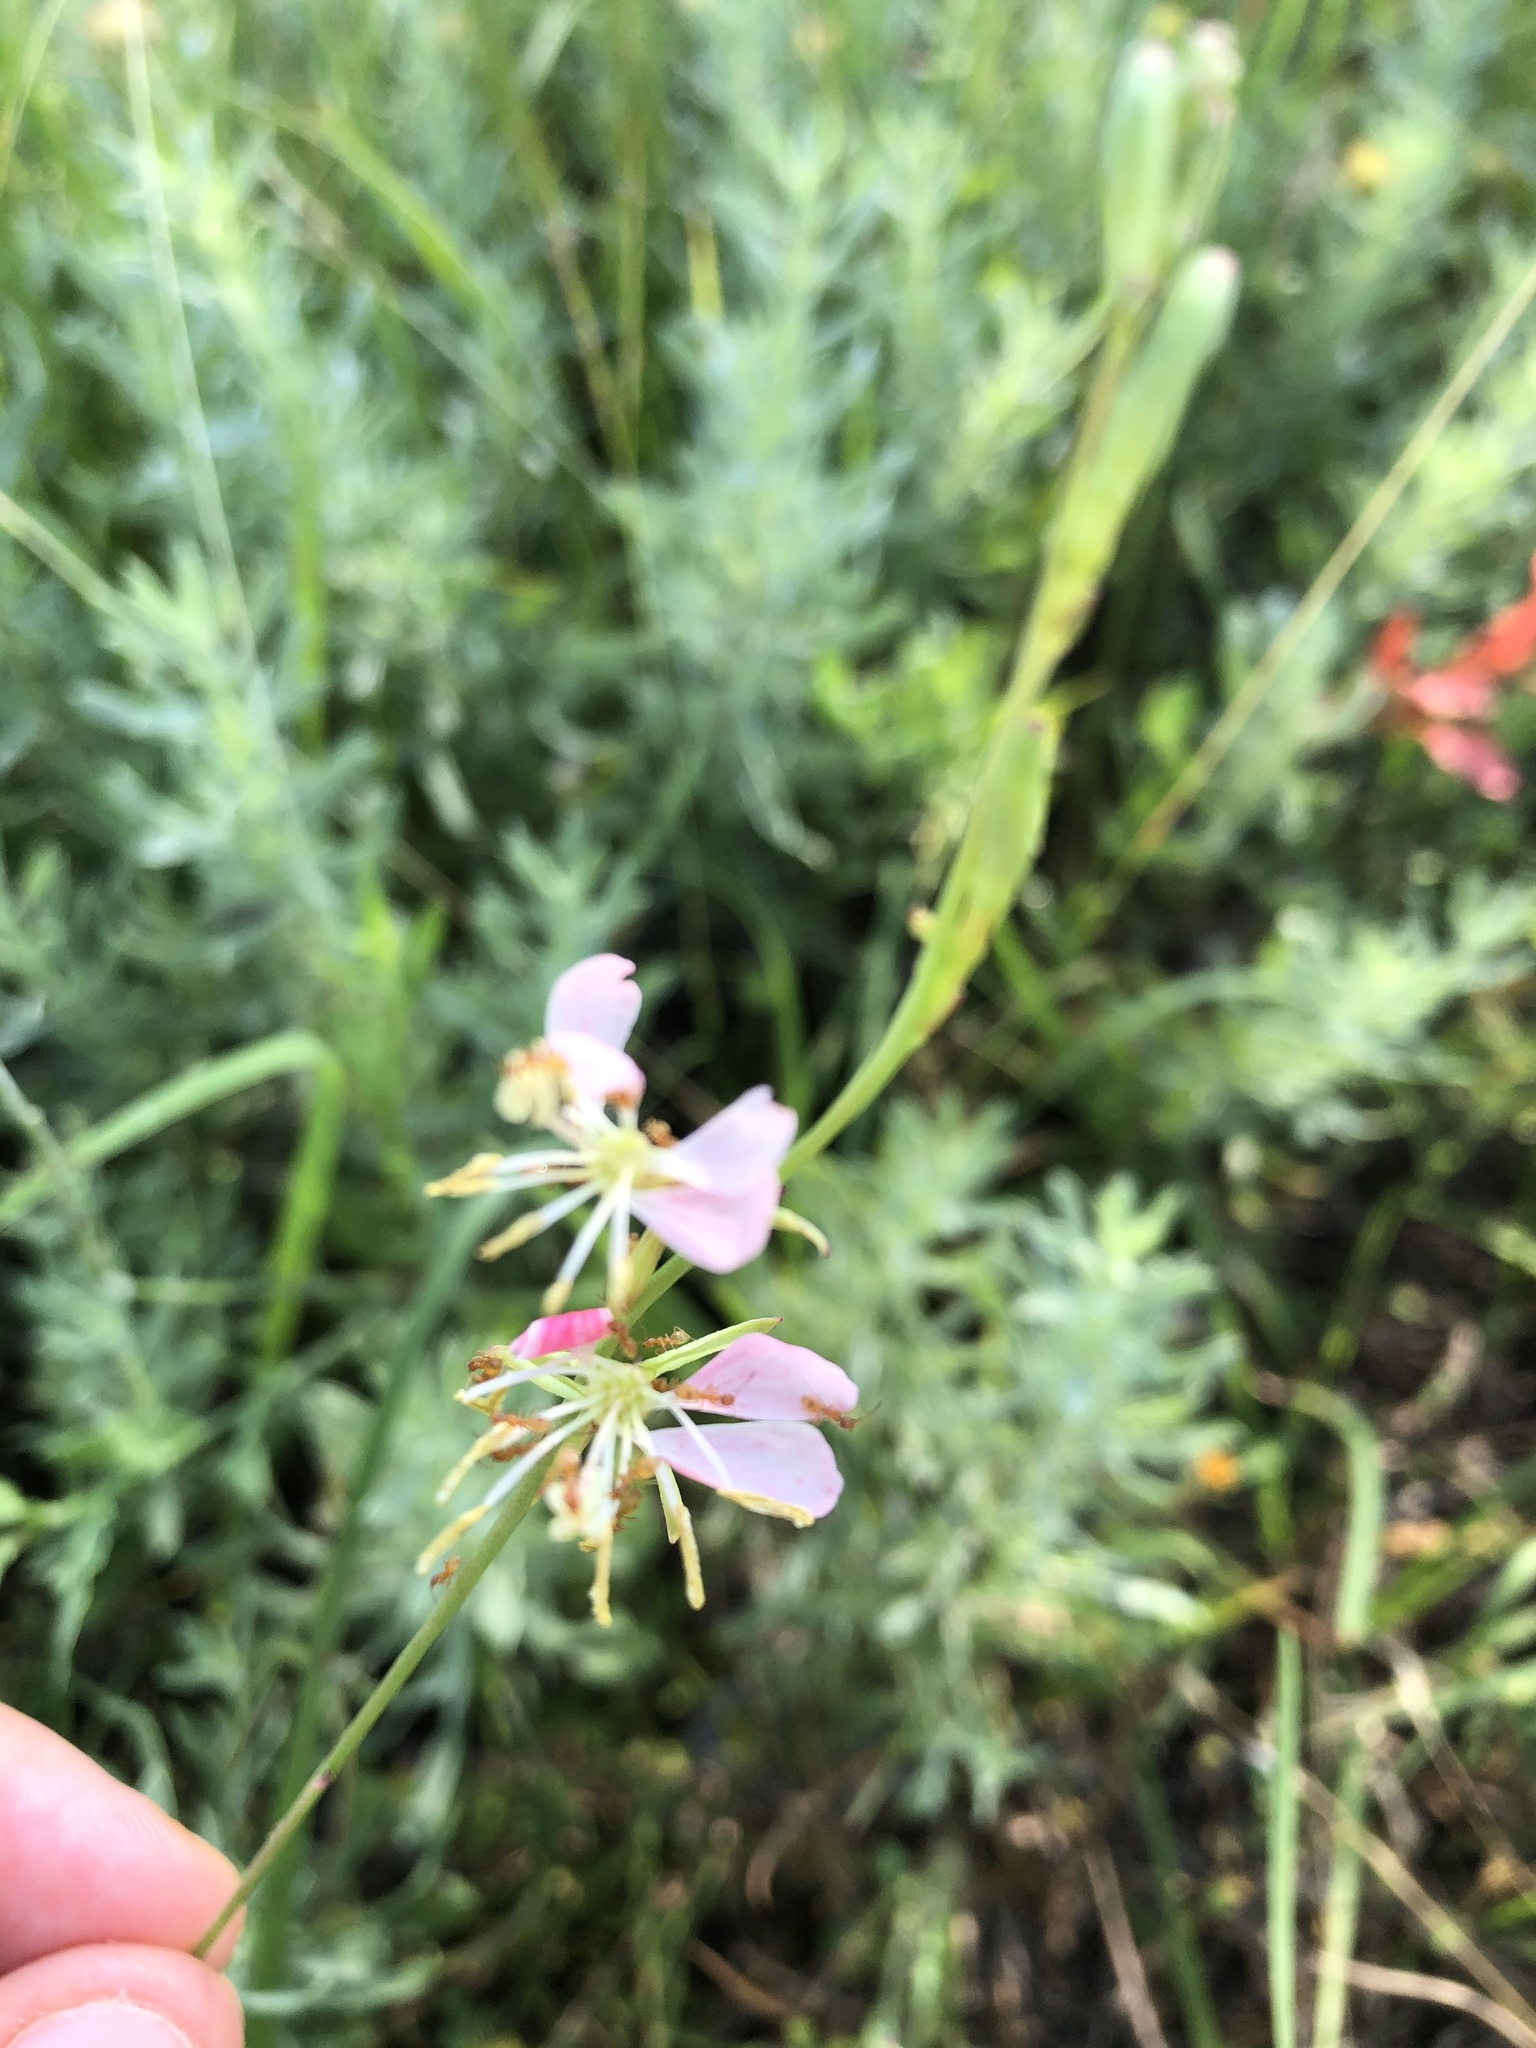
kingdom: Plantae
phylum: Tracheophyta
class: Magnoliopsida
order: Myrtales
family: Onagraceae
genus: Oenothera
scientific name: Oenothera suffulta
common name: Kisses
